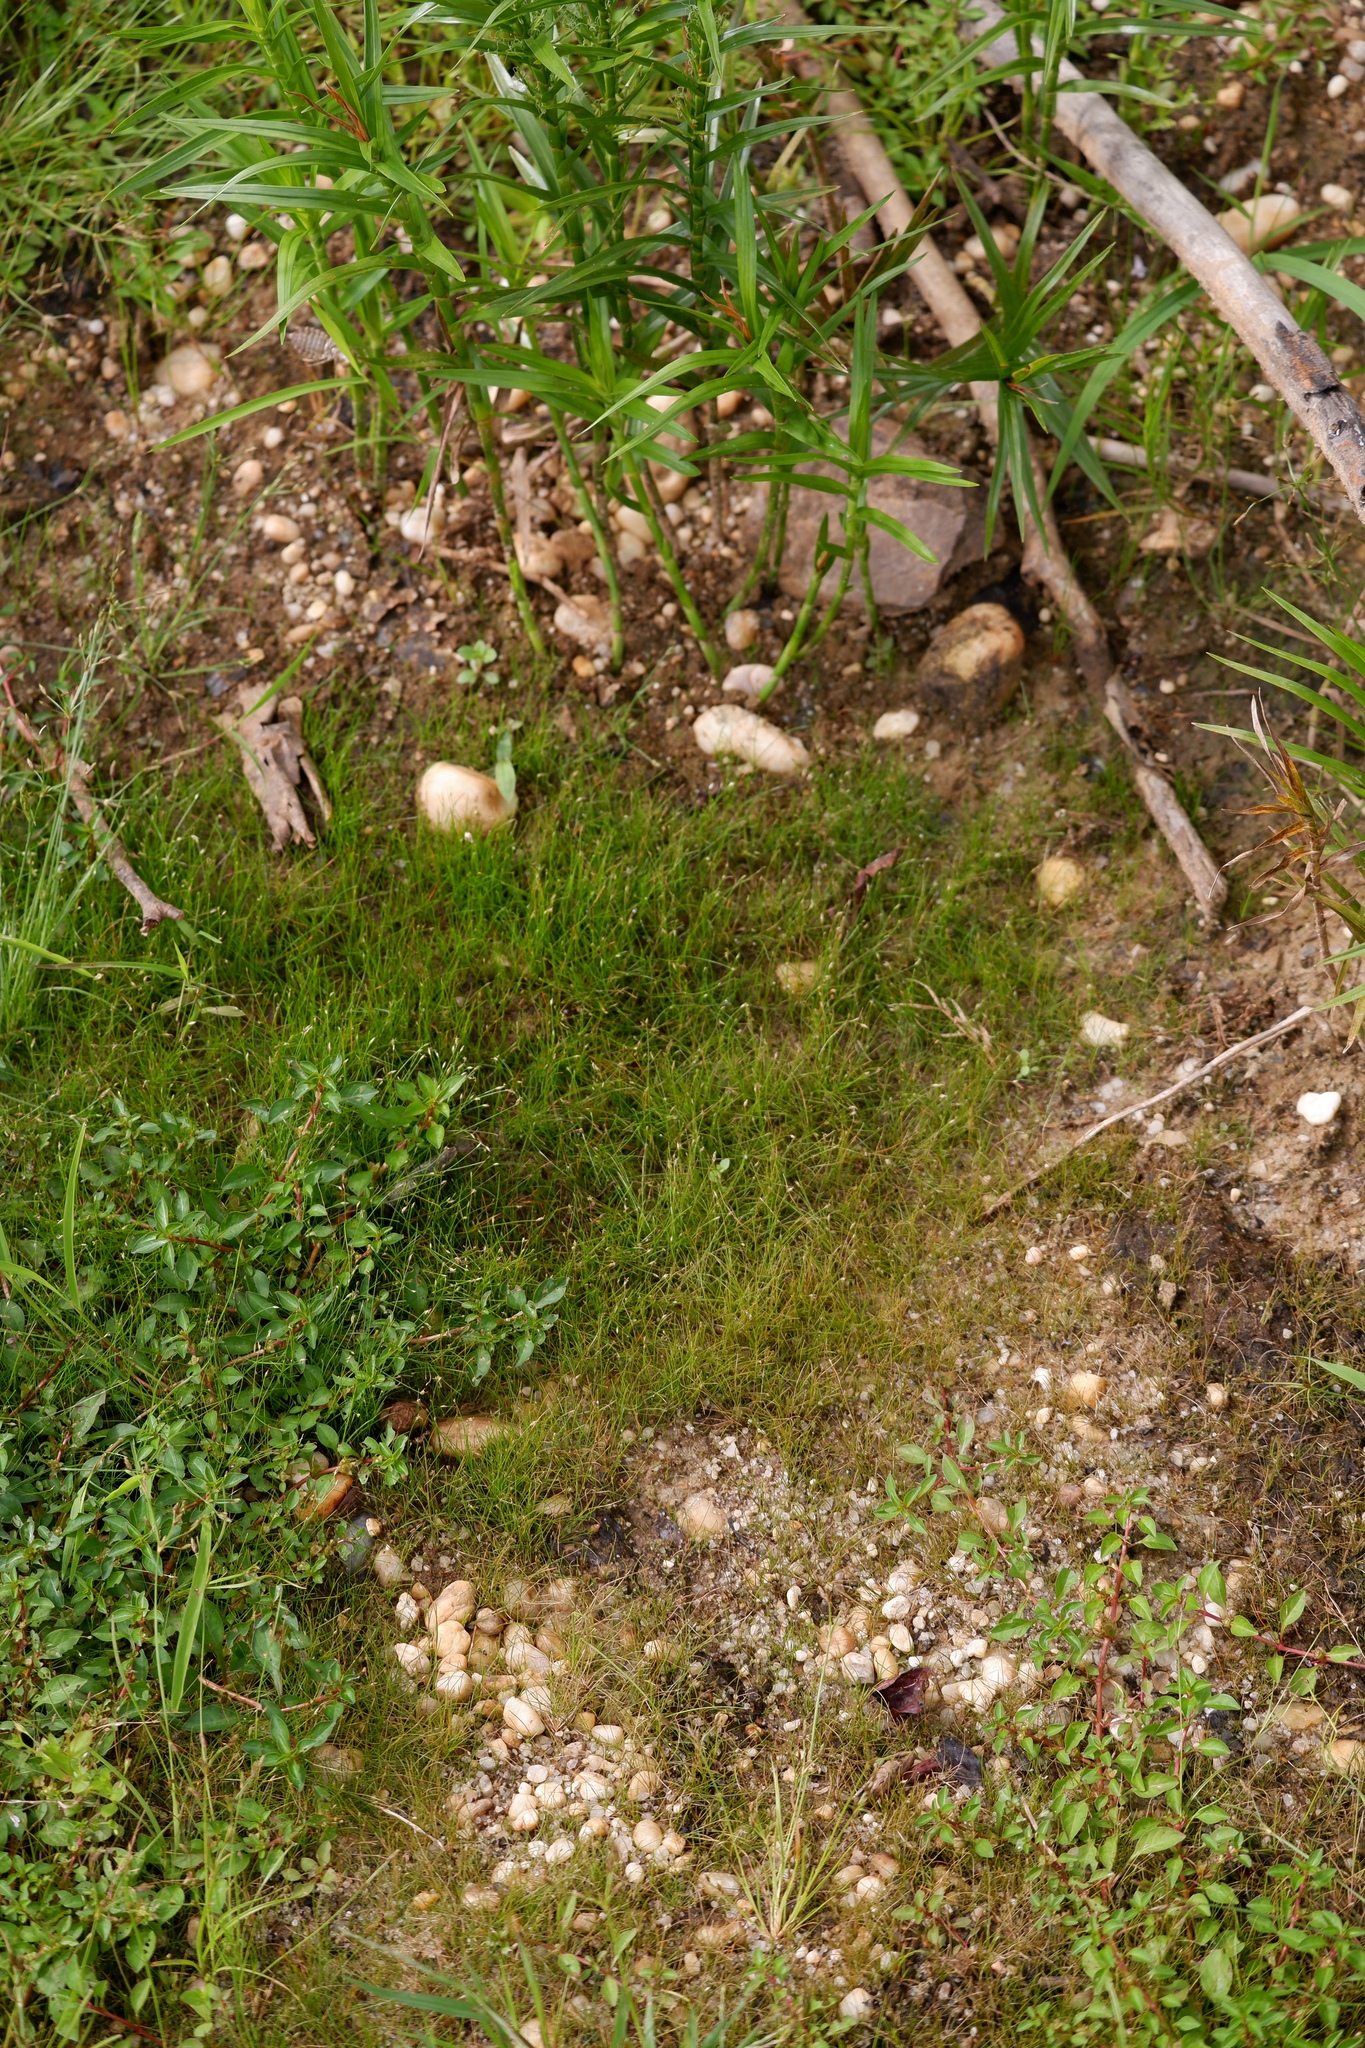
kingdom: Plantae
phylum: Tracheophyta
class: Liliopsida
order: Poales
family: Cyperaceae
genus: Eleocharis
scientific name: Eleocharis acicularis
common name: Needle spike-rush
